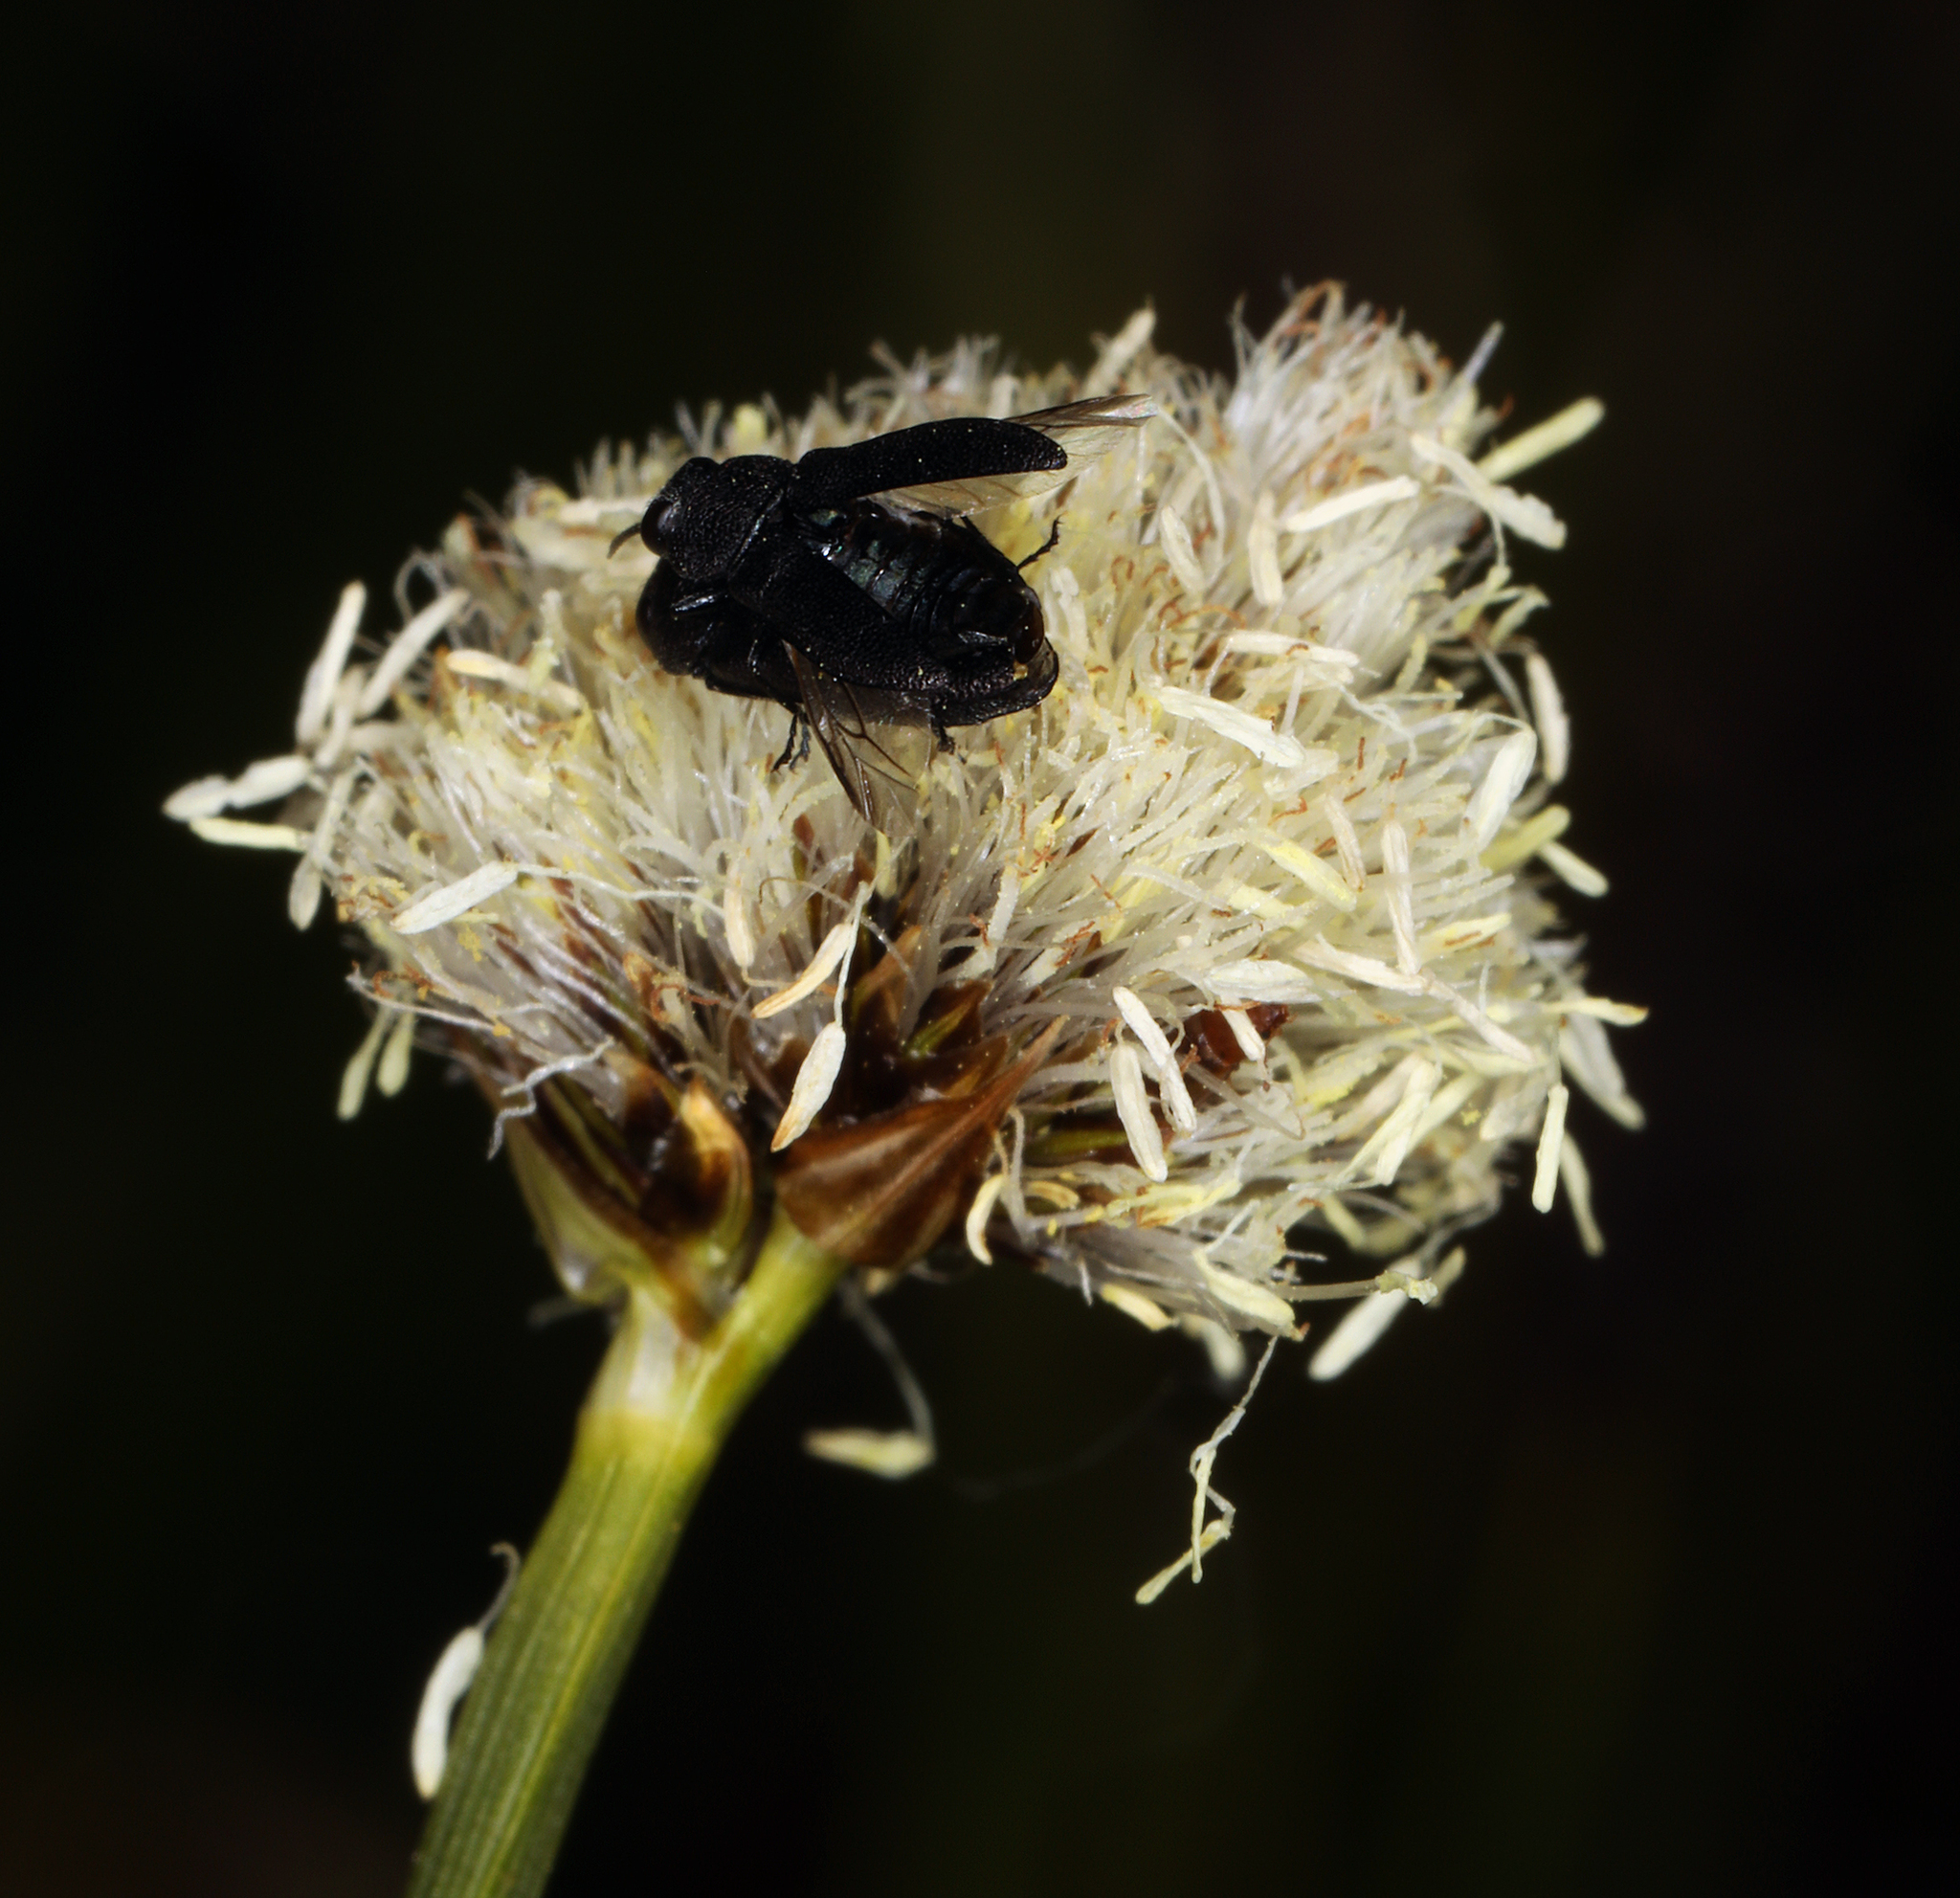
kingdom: Plantae
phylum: Tracheophyta
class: Liliopsida
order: Poales
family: Cyperaceae
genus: Calliscirpus
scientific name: Calliscirpus criniger
